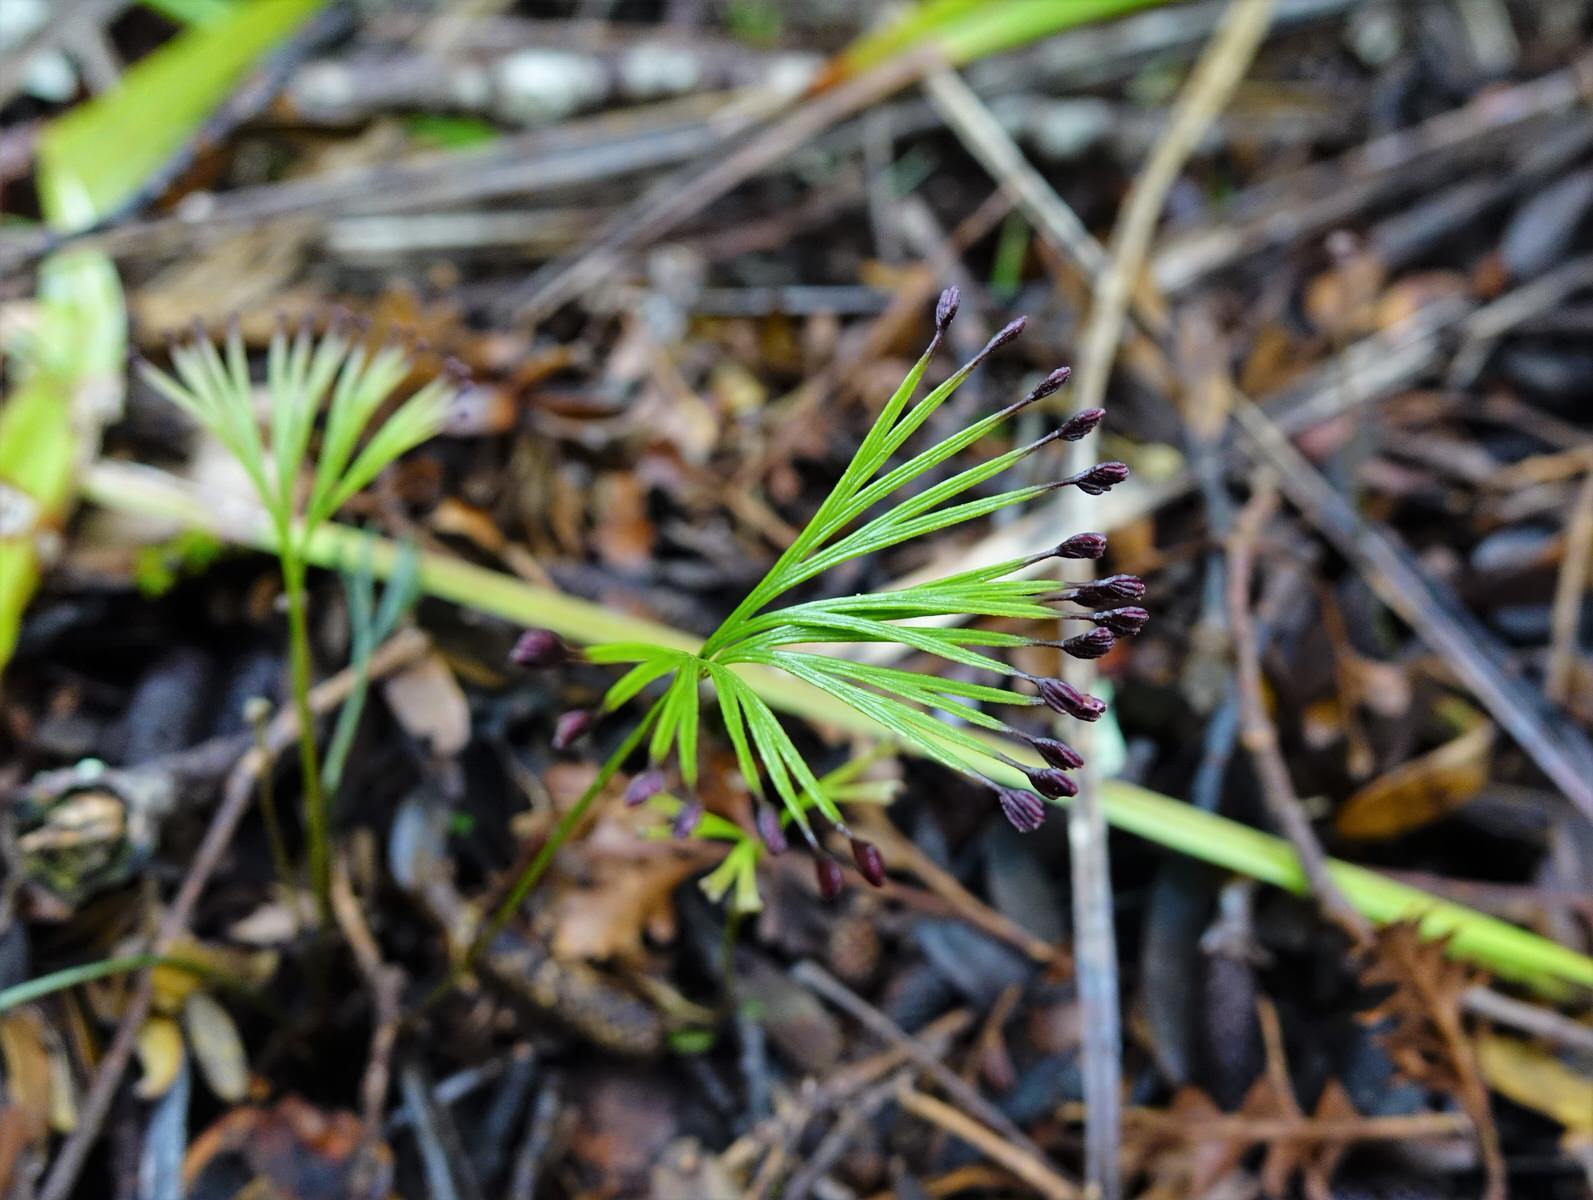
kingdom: Plantae
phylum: Tracheophyta
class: Polypodiopsida
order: Schizaeales
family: Schizaeaceae
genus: Schizaea
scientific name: Schizaea dichotoma
